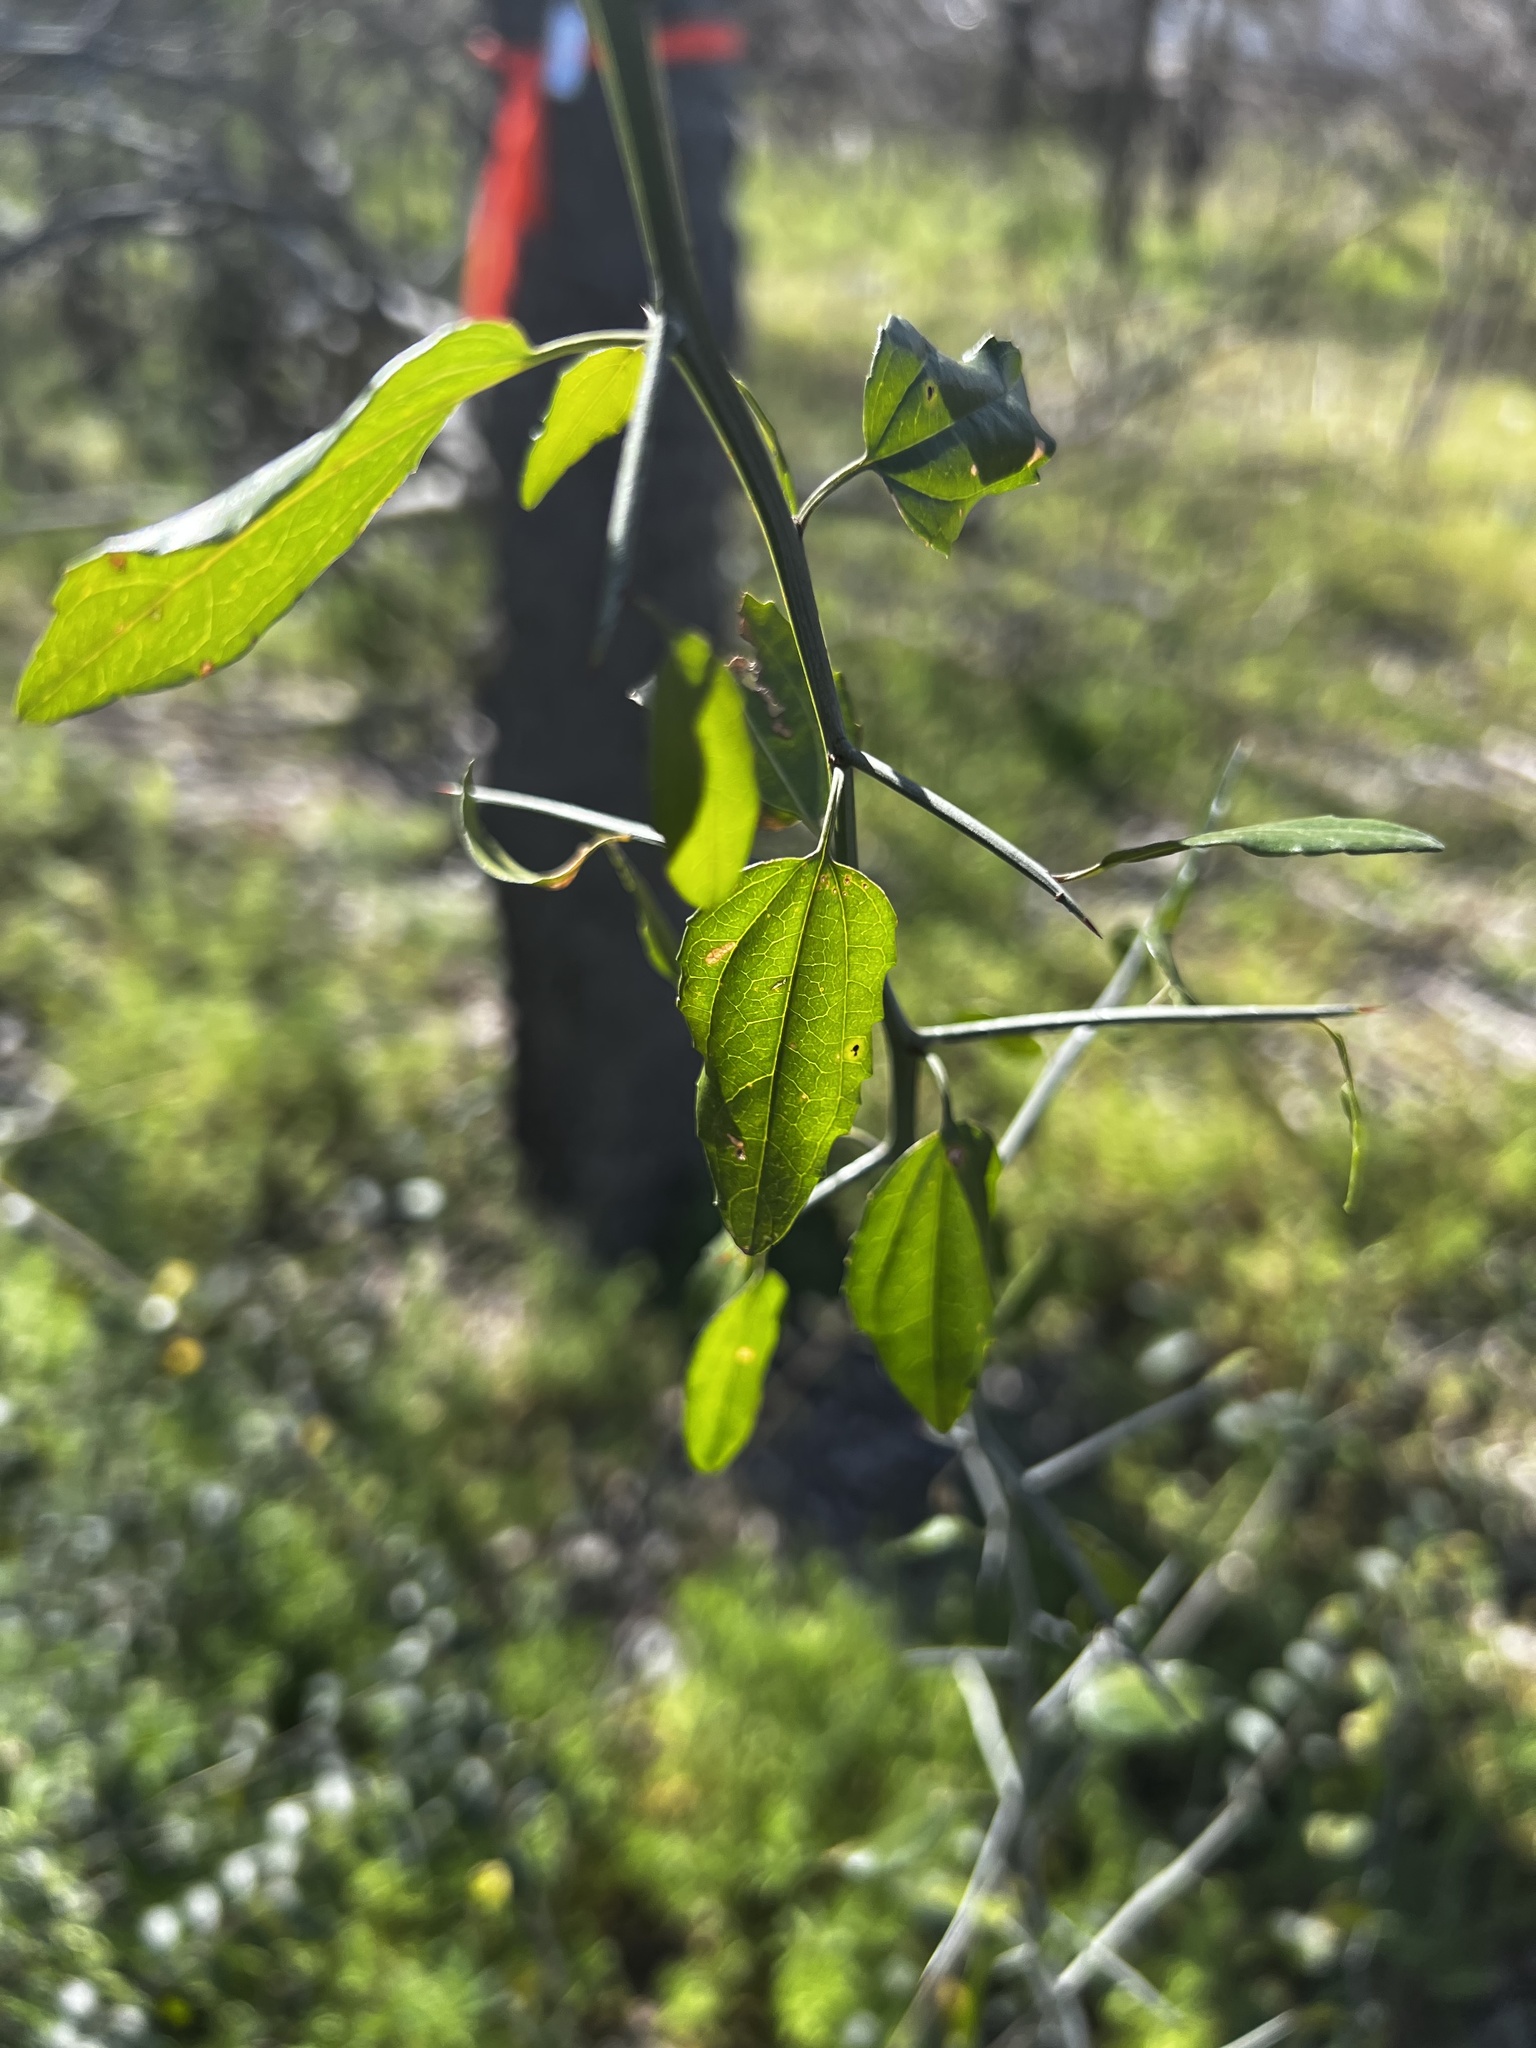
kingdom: Plantae
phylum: Tracheophyta
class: Magnoliopsida
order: Rosales
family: Rhamnaceae
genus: Sarcomphalus
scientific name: Sarcomphalus obtusifolius
